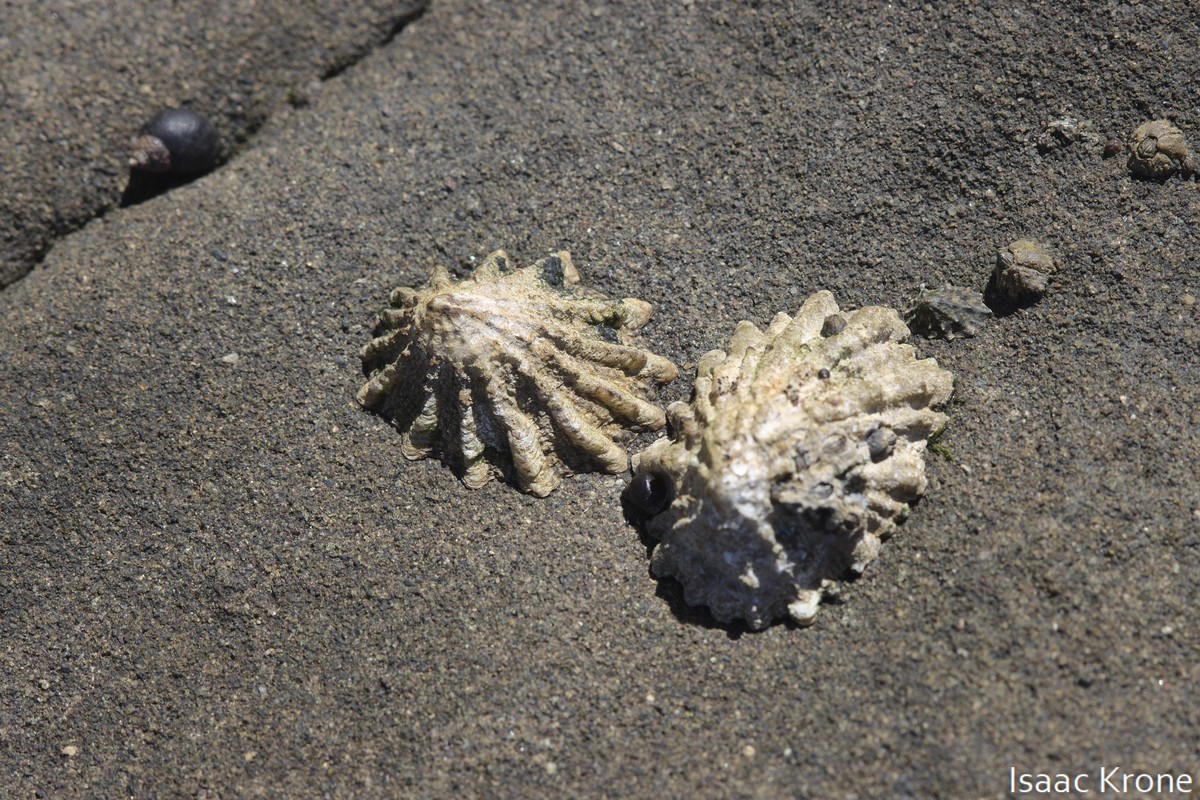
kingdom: Animalia
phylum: Mollusca
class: Gastropoda
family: Lottiidae
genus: Lottia
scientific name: Lottia scabra
